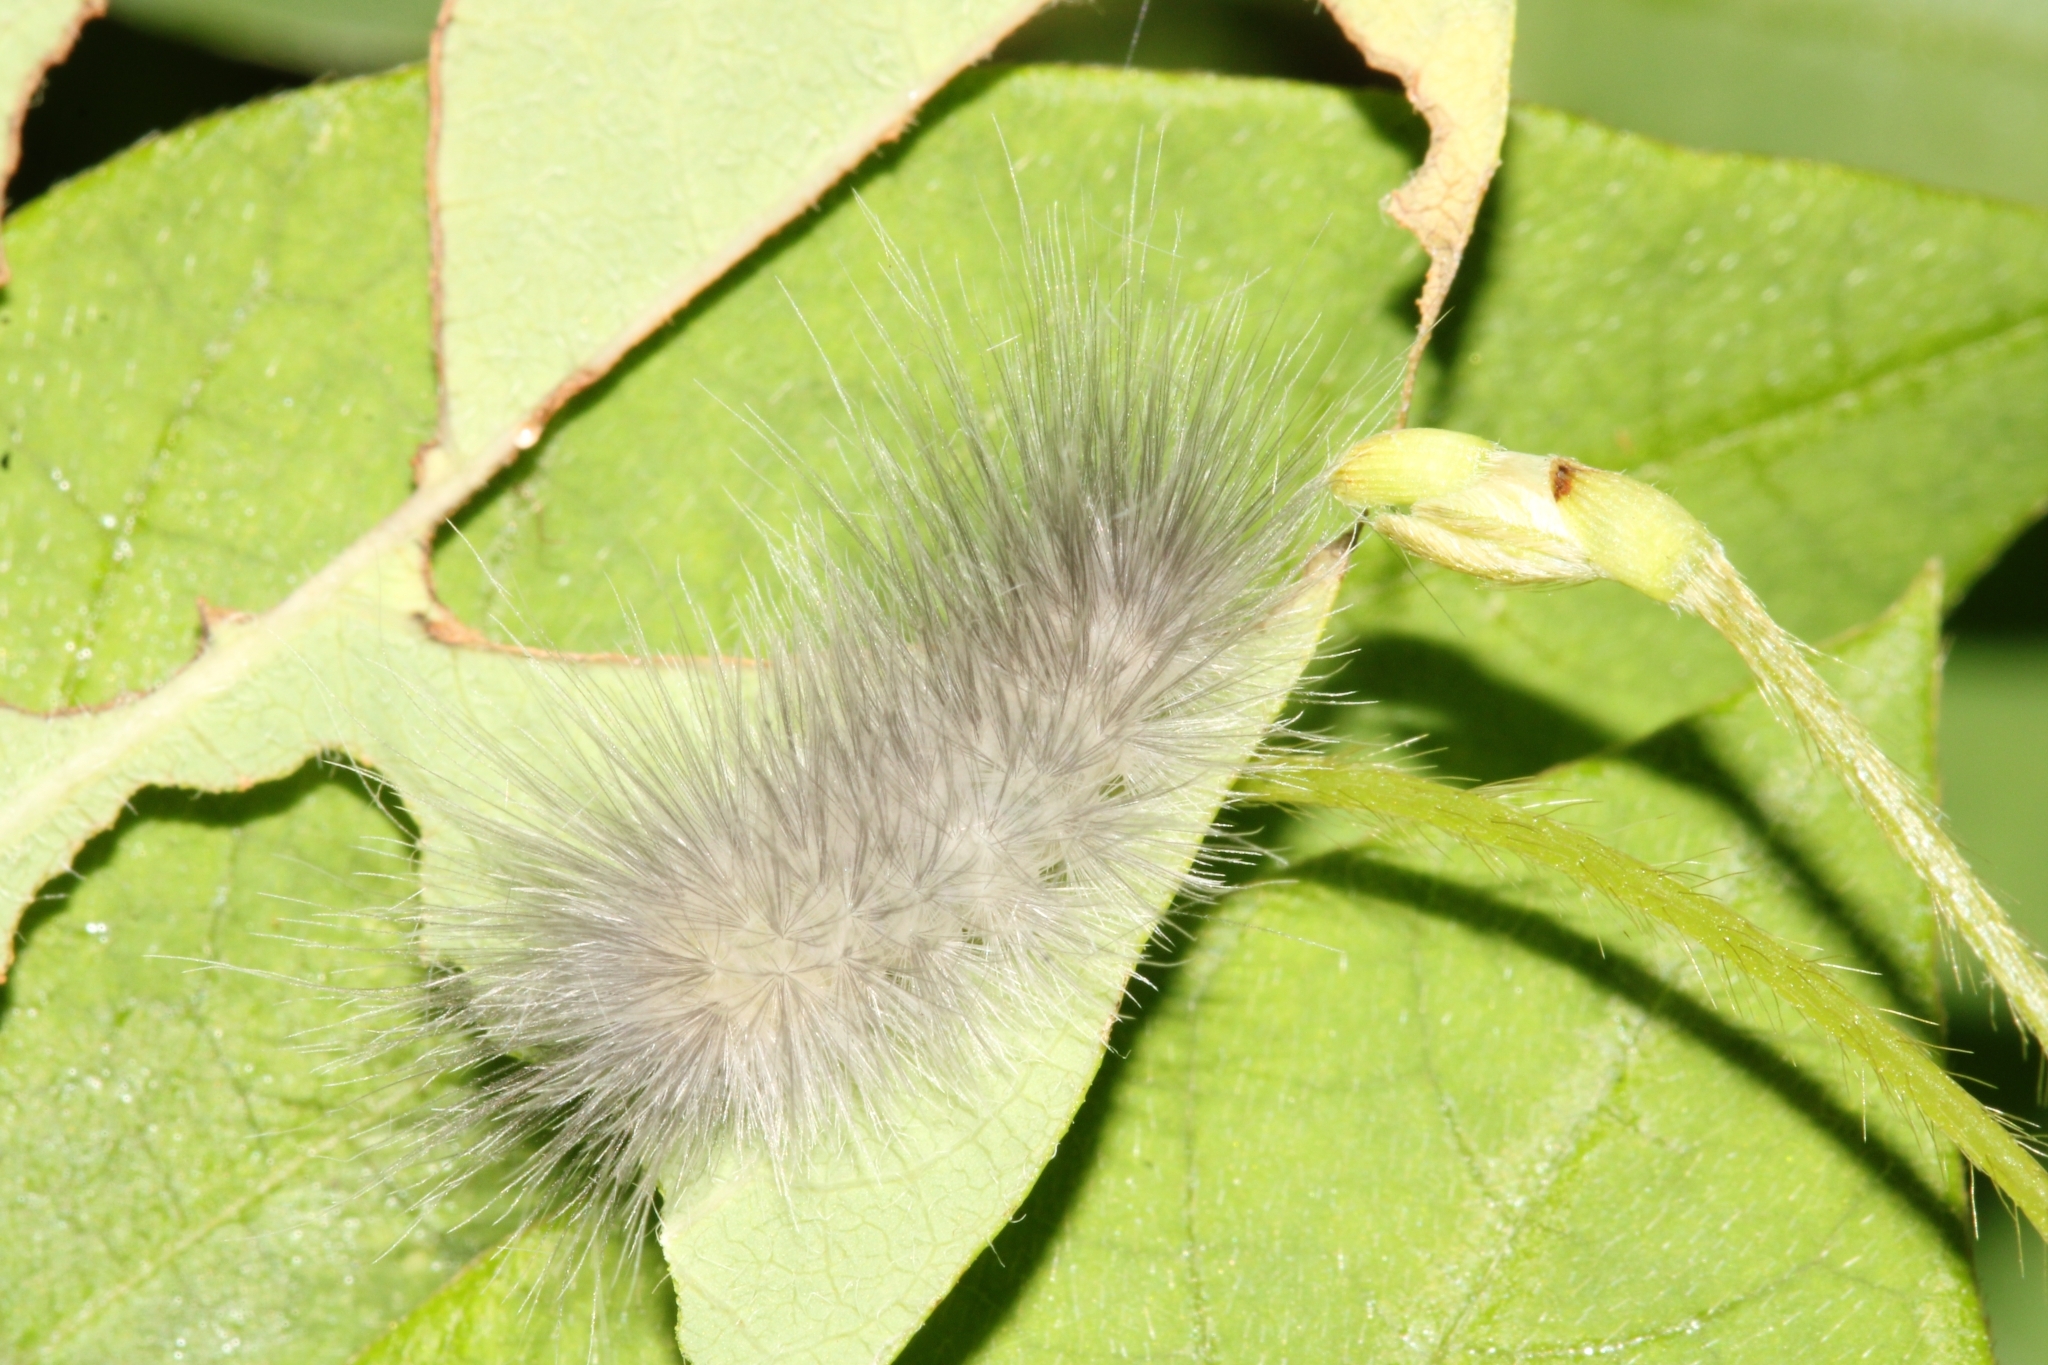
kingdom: Animalia
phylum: Arthropoda
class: Insecta
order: Lepidoptera
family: Erebidae
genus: Cycnia
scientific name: Cycnia tenera
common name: Delicate cycnia moth
